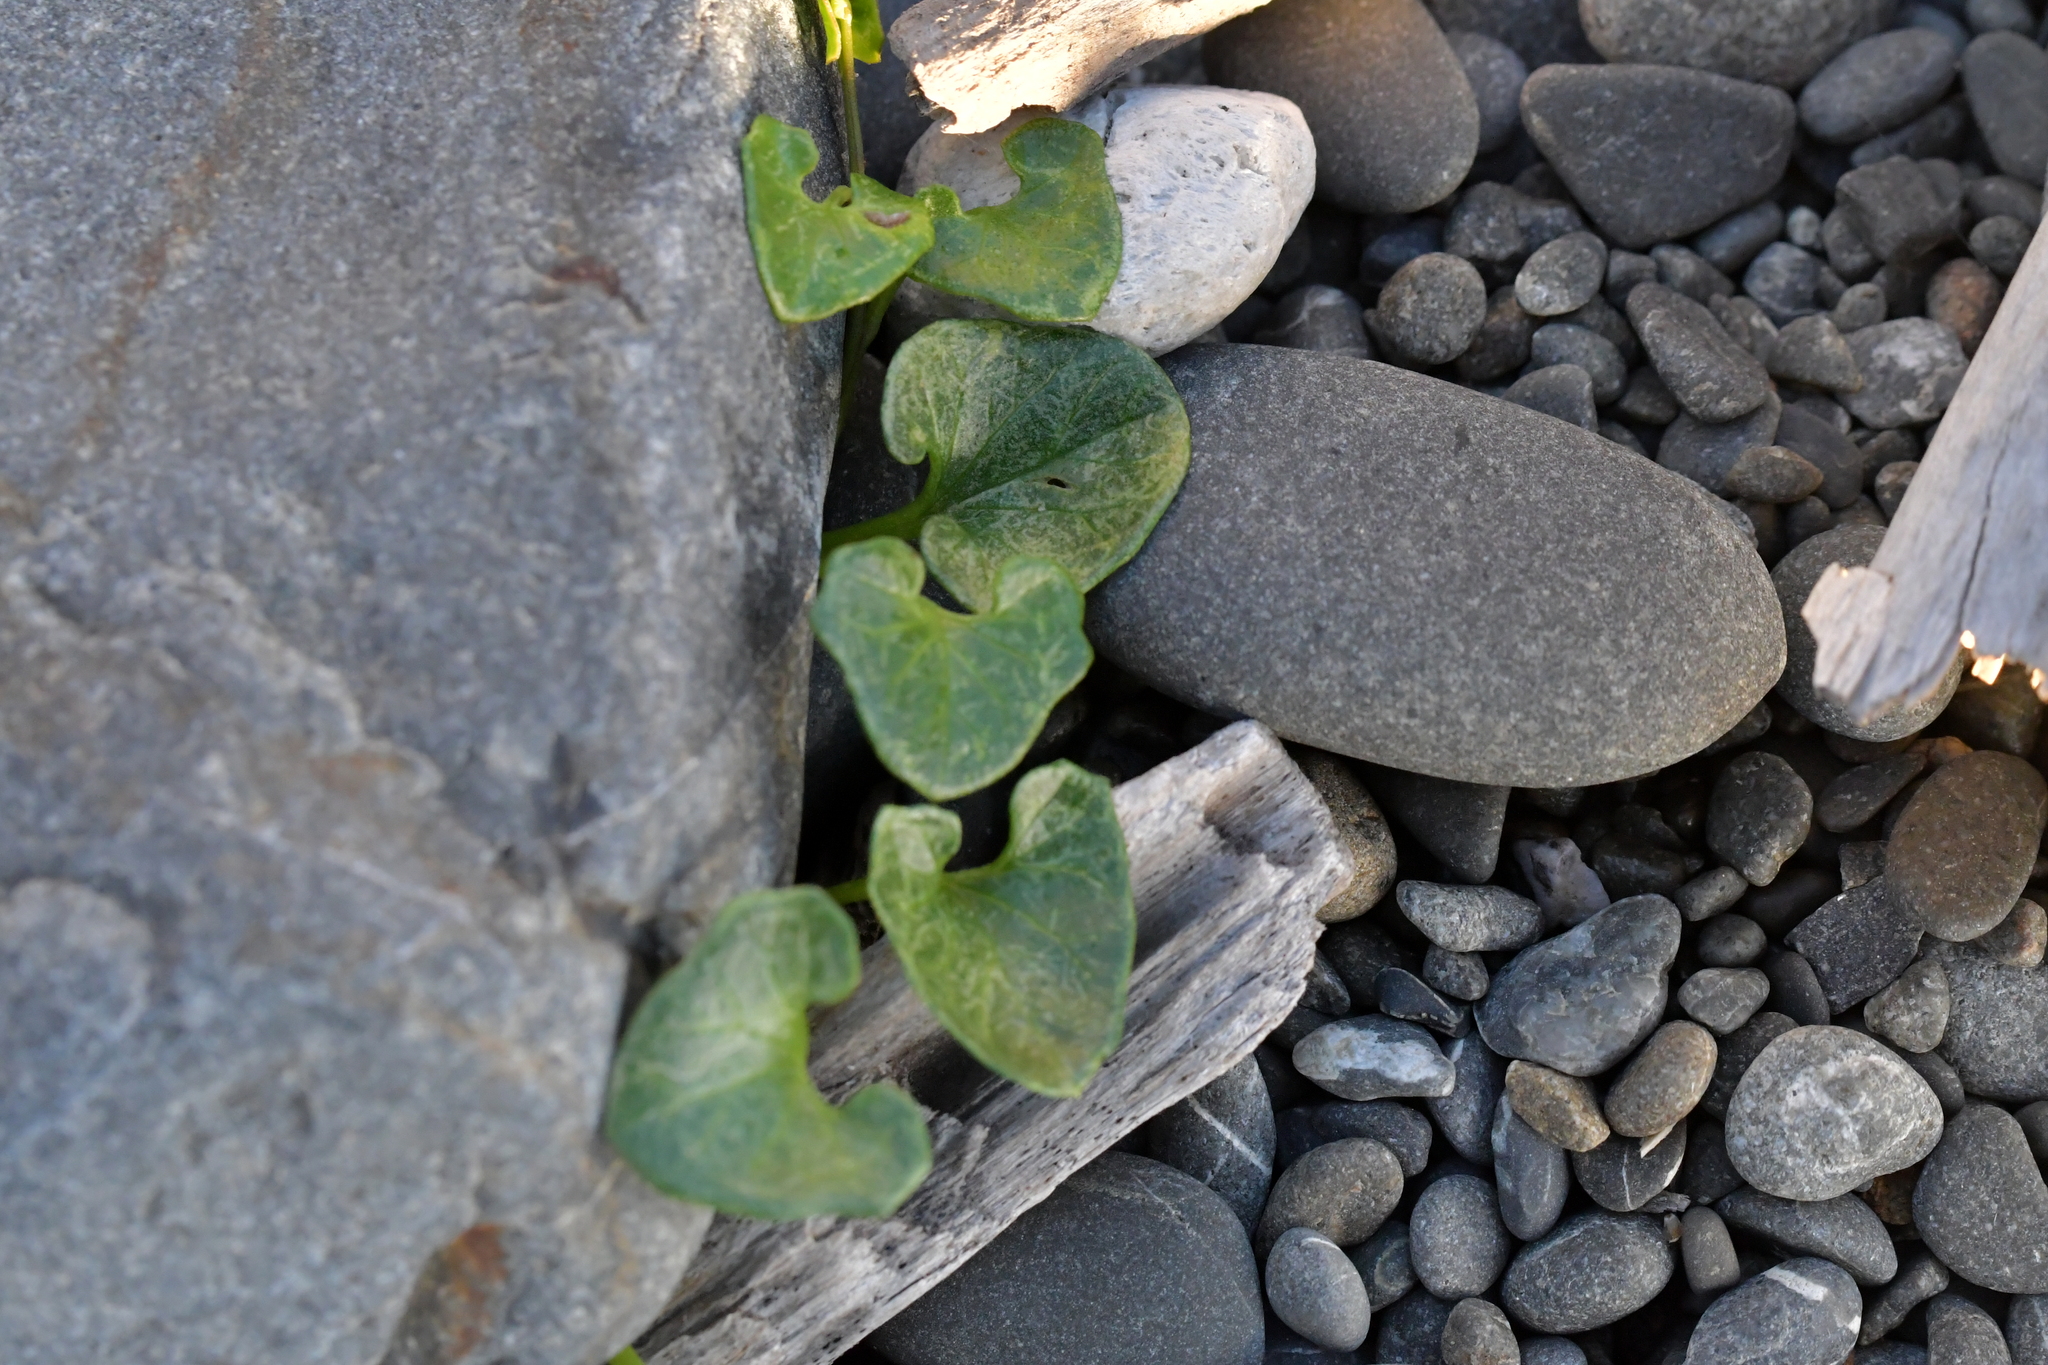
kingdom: Plantae
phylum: Tracheophyta
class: Magnoliopsida
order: Solanales
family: Convolvulaceae
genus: Calystegia
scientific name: Calystegia soldanella
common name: Sea bindweed
